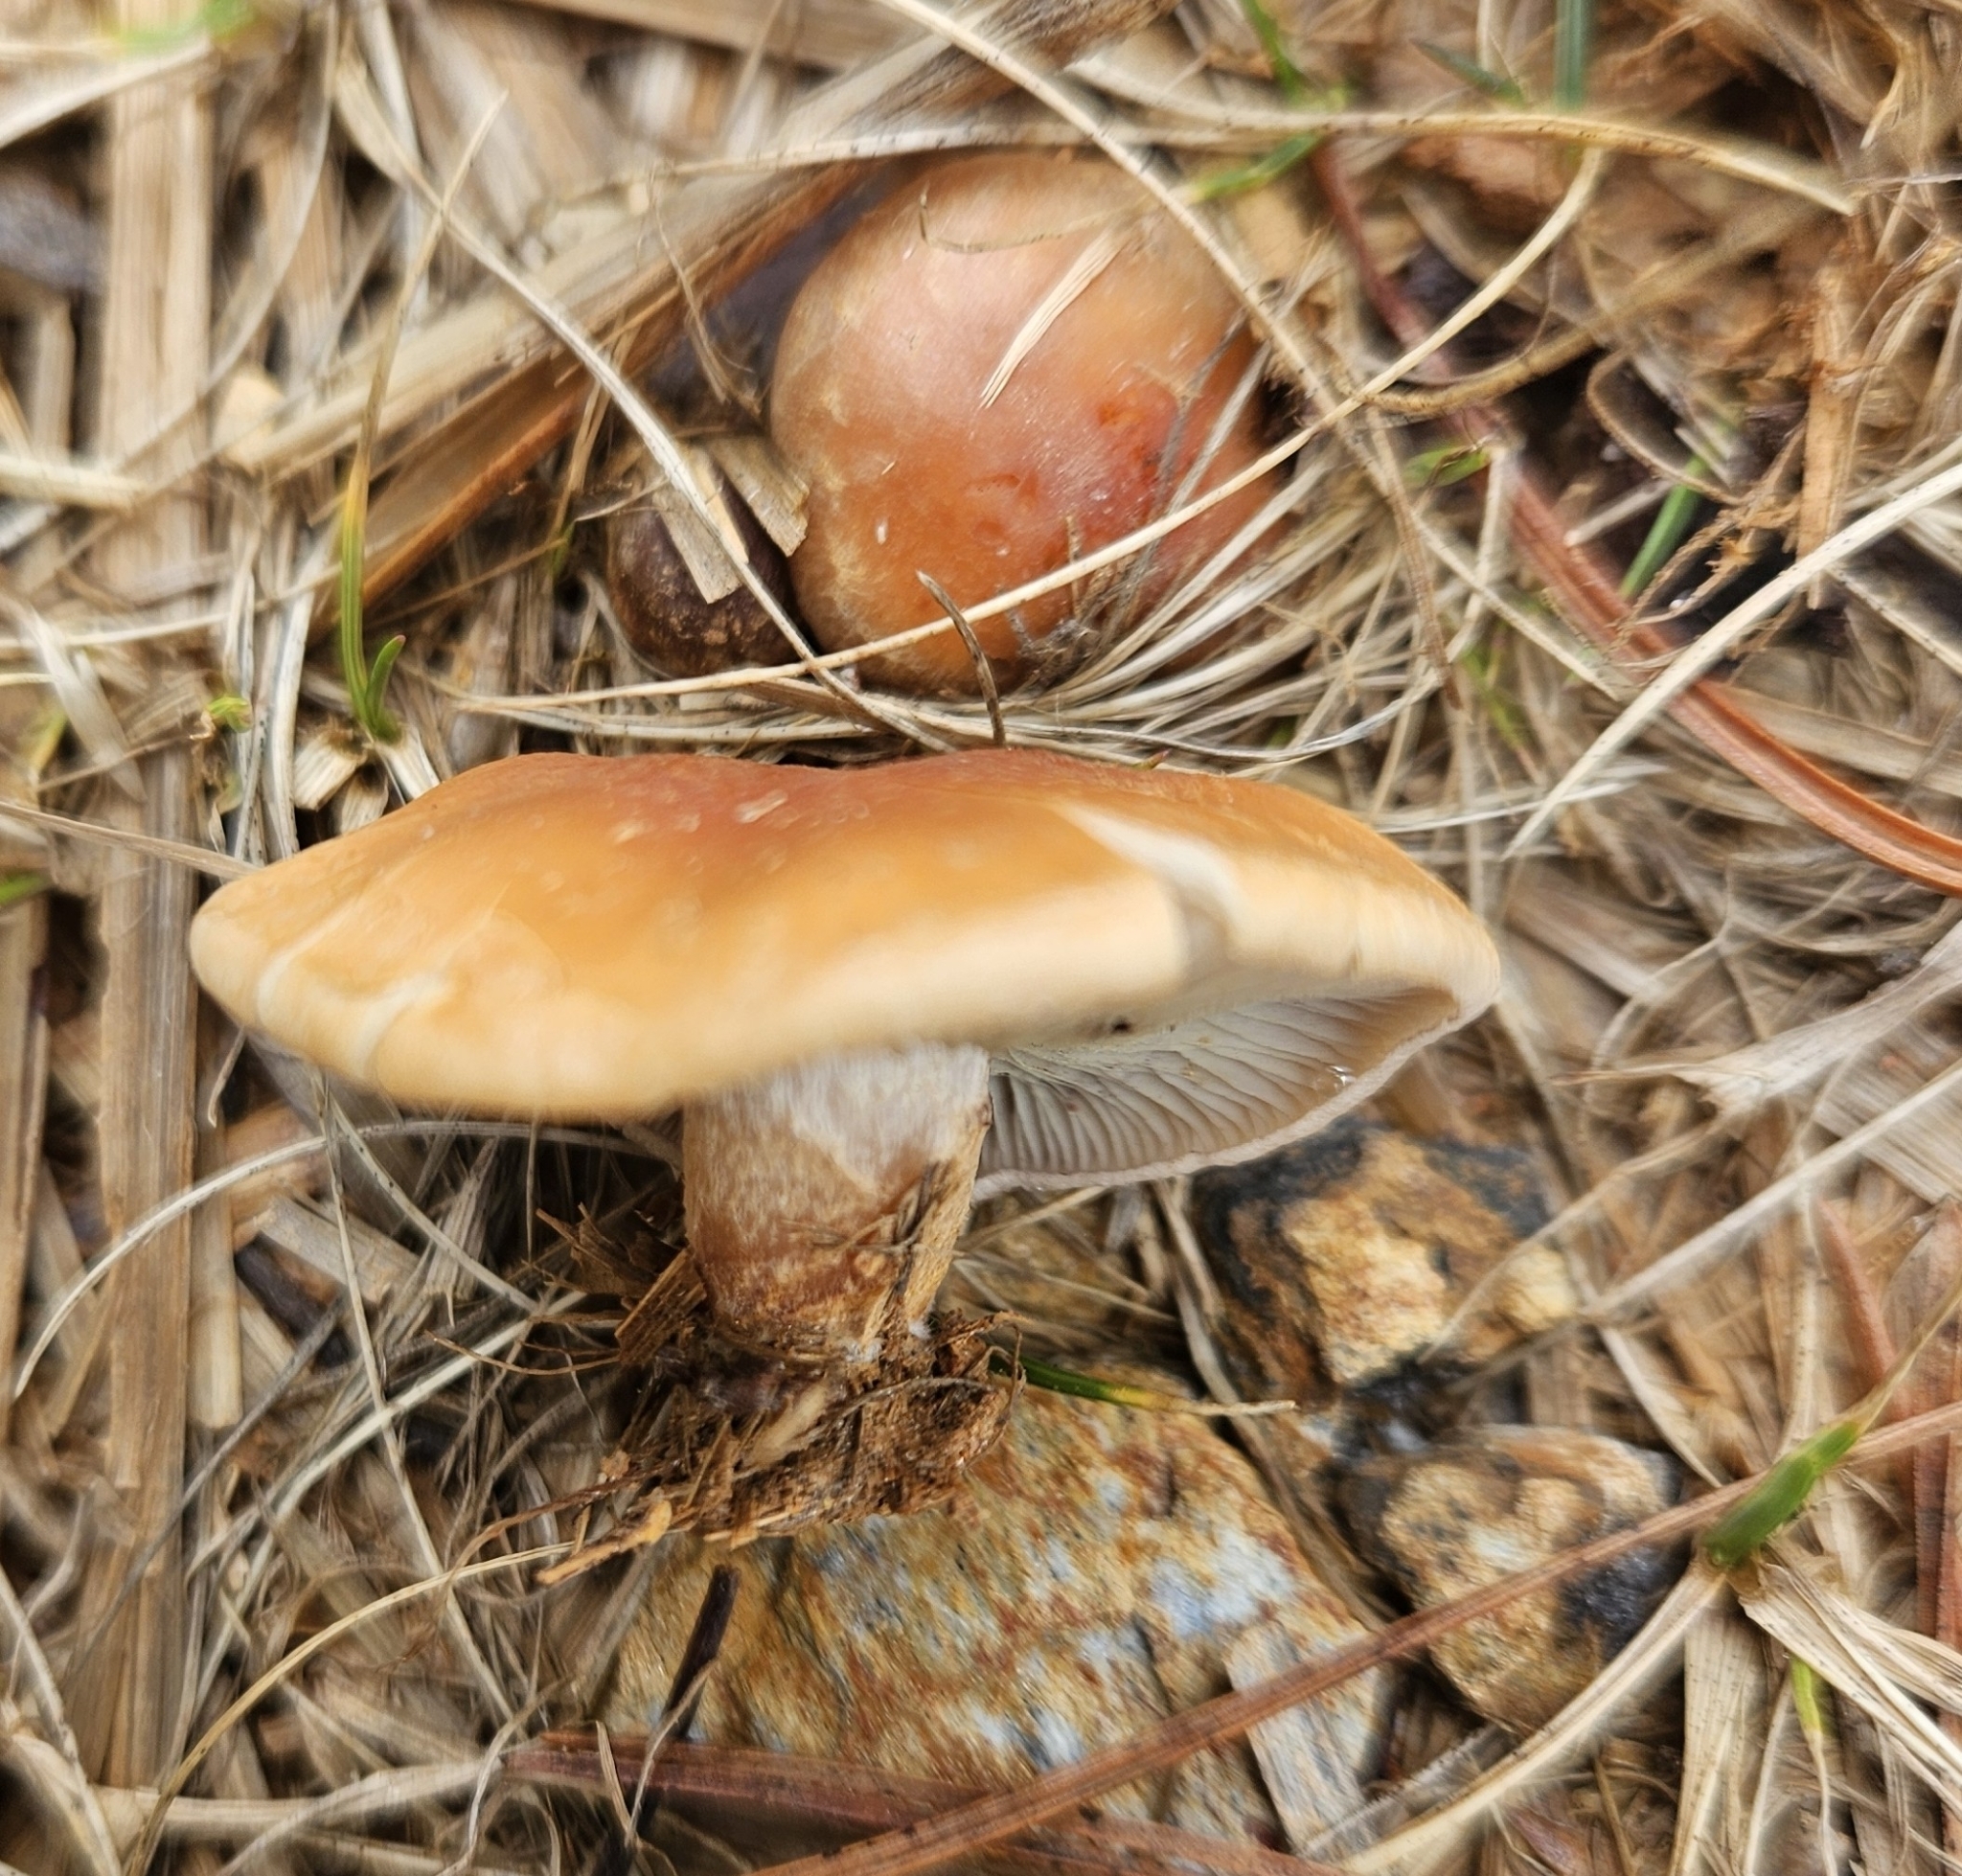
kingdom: Fungi
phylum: Basidiomycota
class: Agaricomycetes
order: Agaricales
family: Strophariaceae
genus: Hypholoma
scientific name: Hypholoma lateritium
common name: Brick caps
